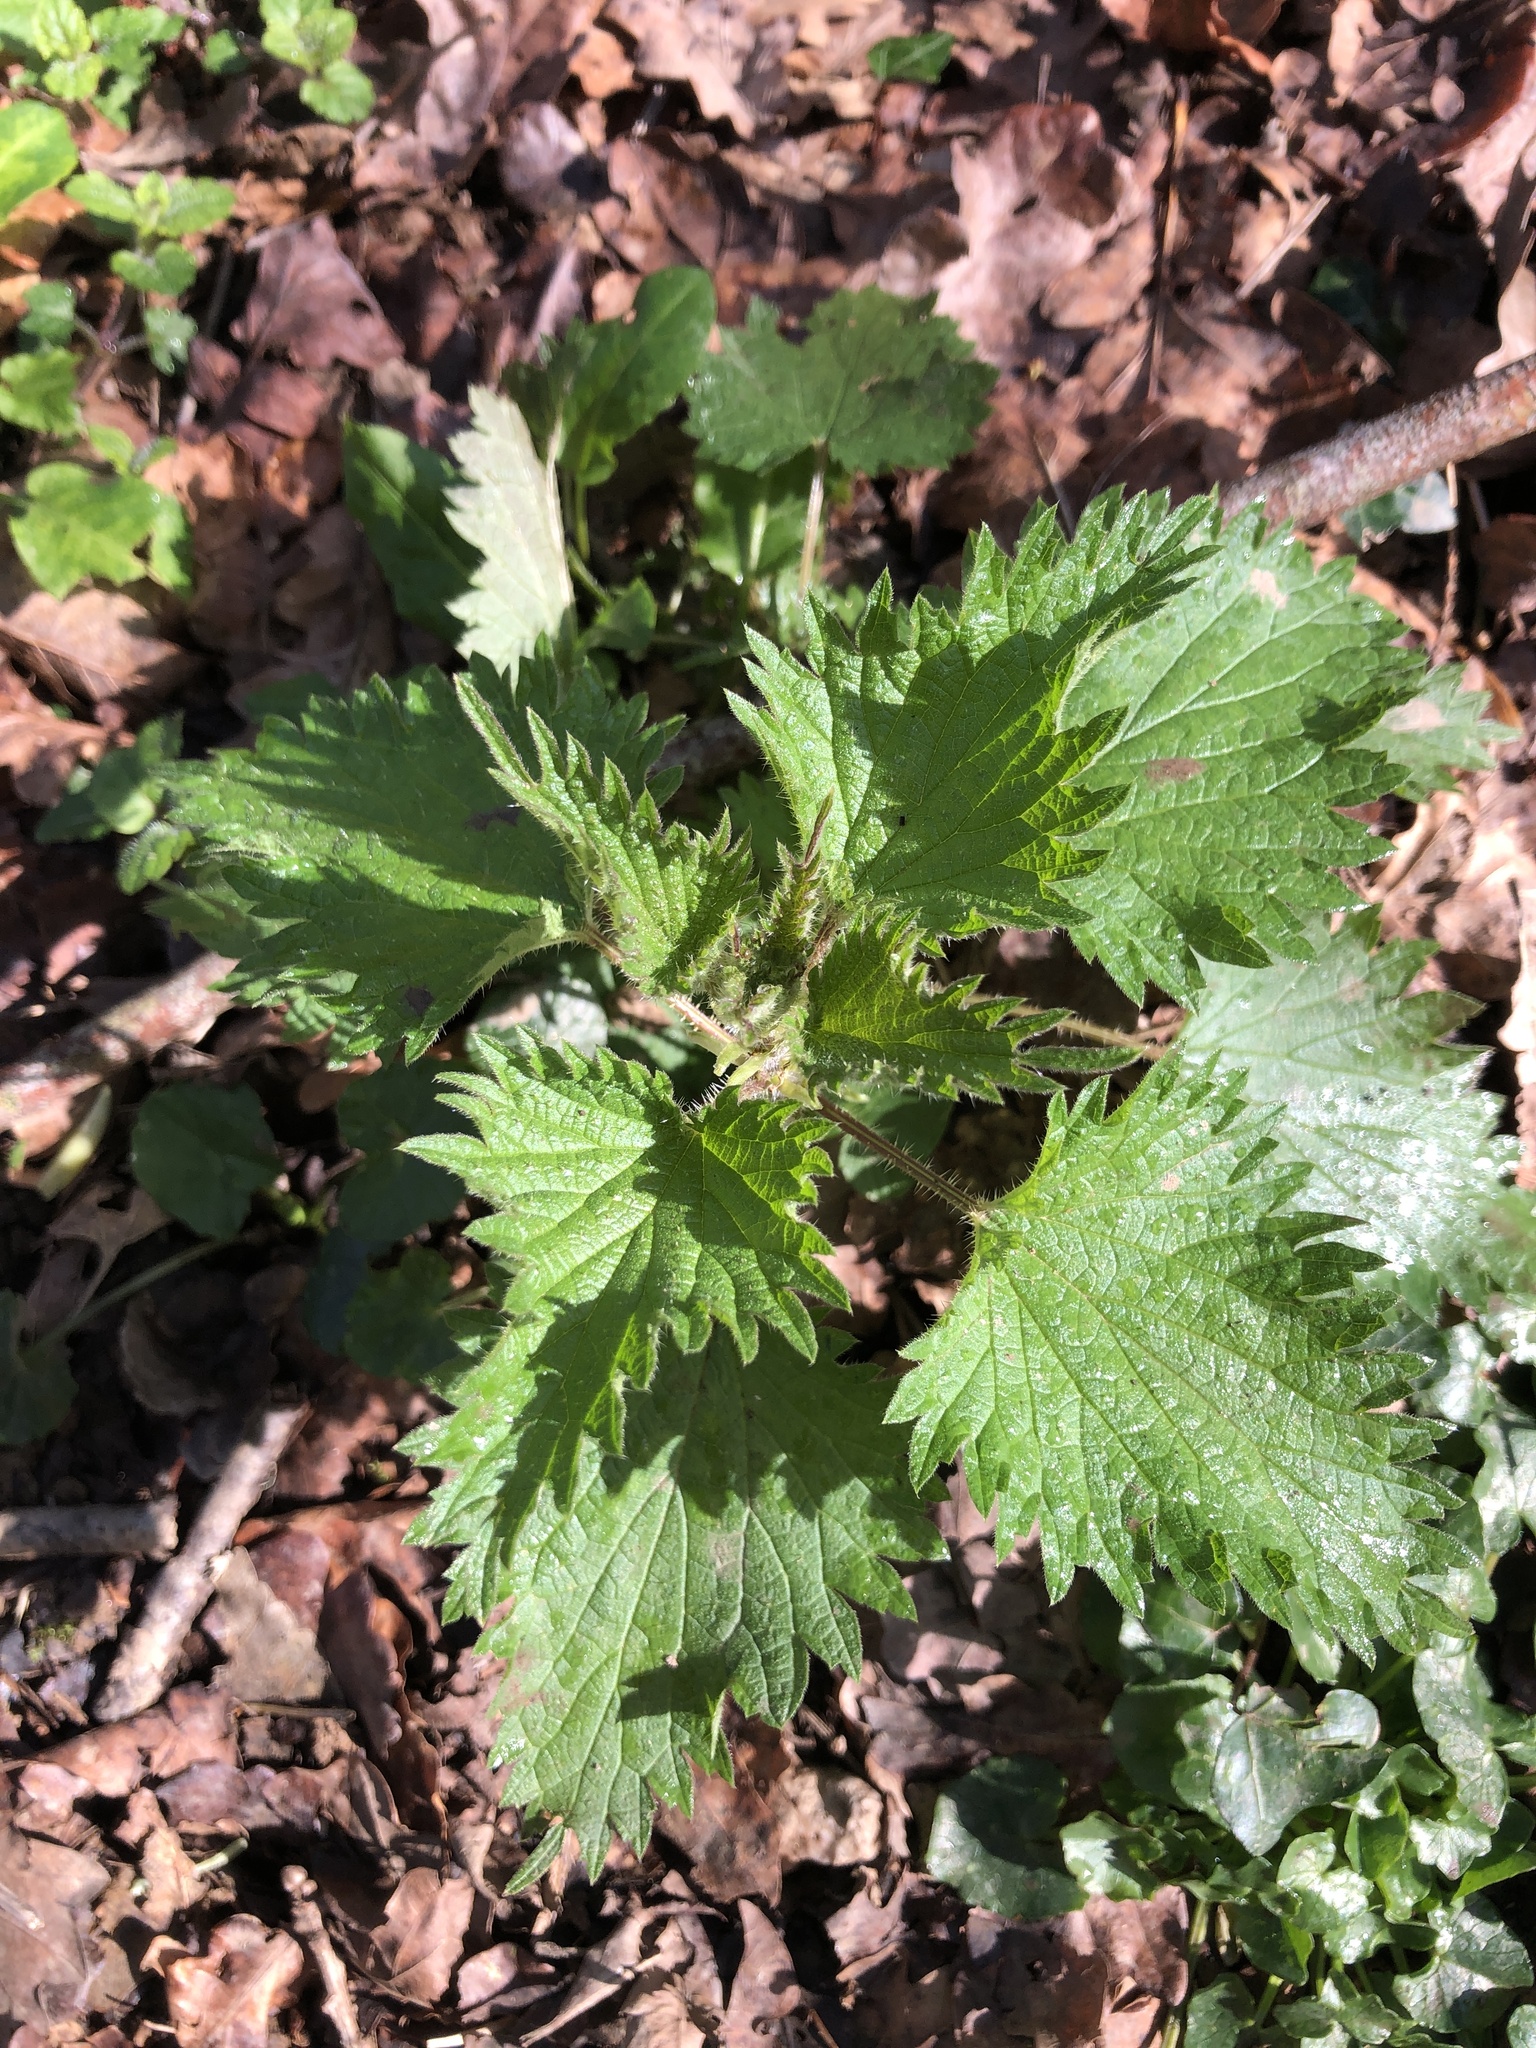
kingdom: Plantae
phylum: Tracheophyta
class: Magnoliopsida
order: Rosales
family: Urticaceae
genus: Urtica
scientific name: Urtica dioica
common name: Common nettle
